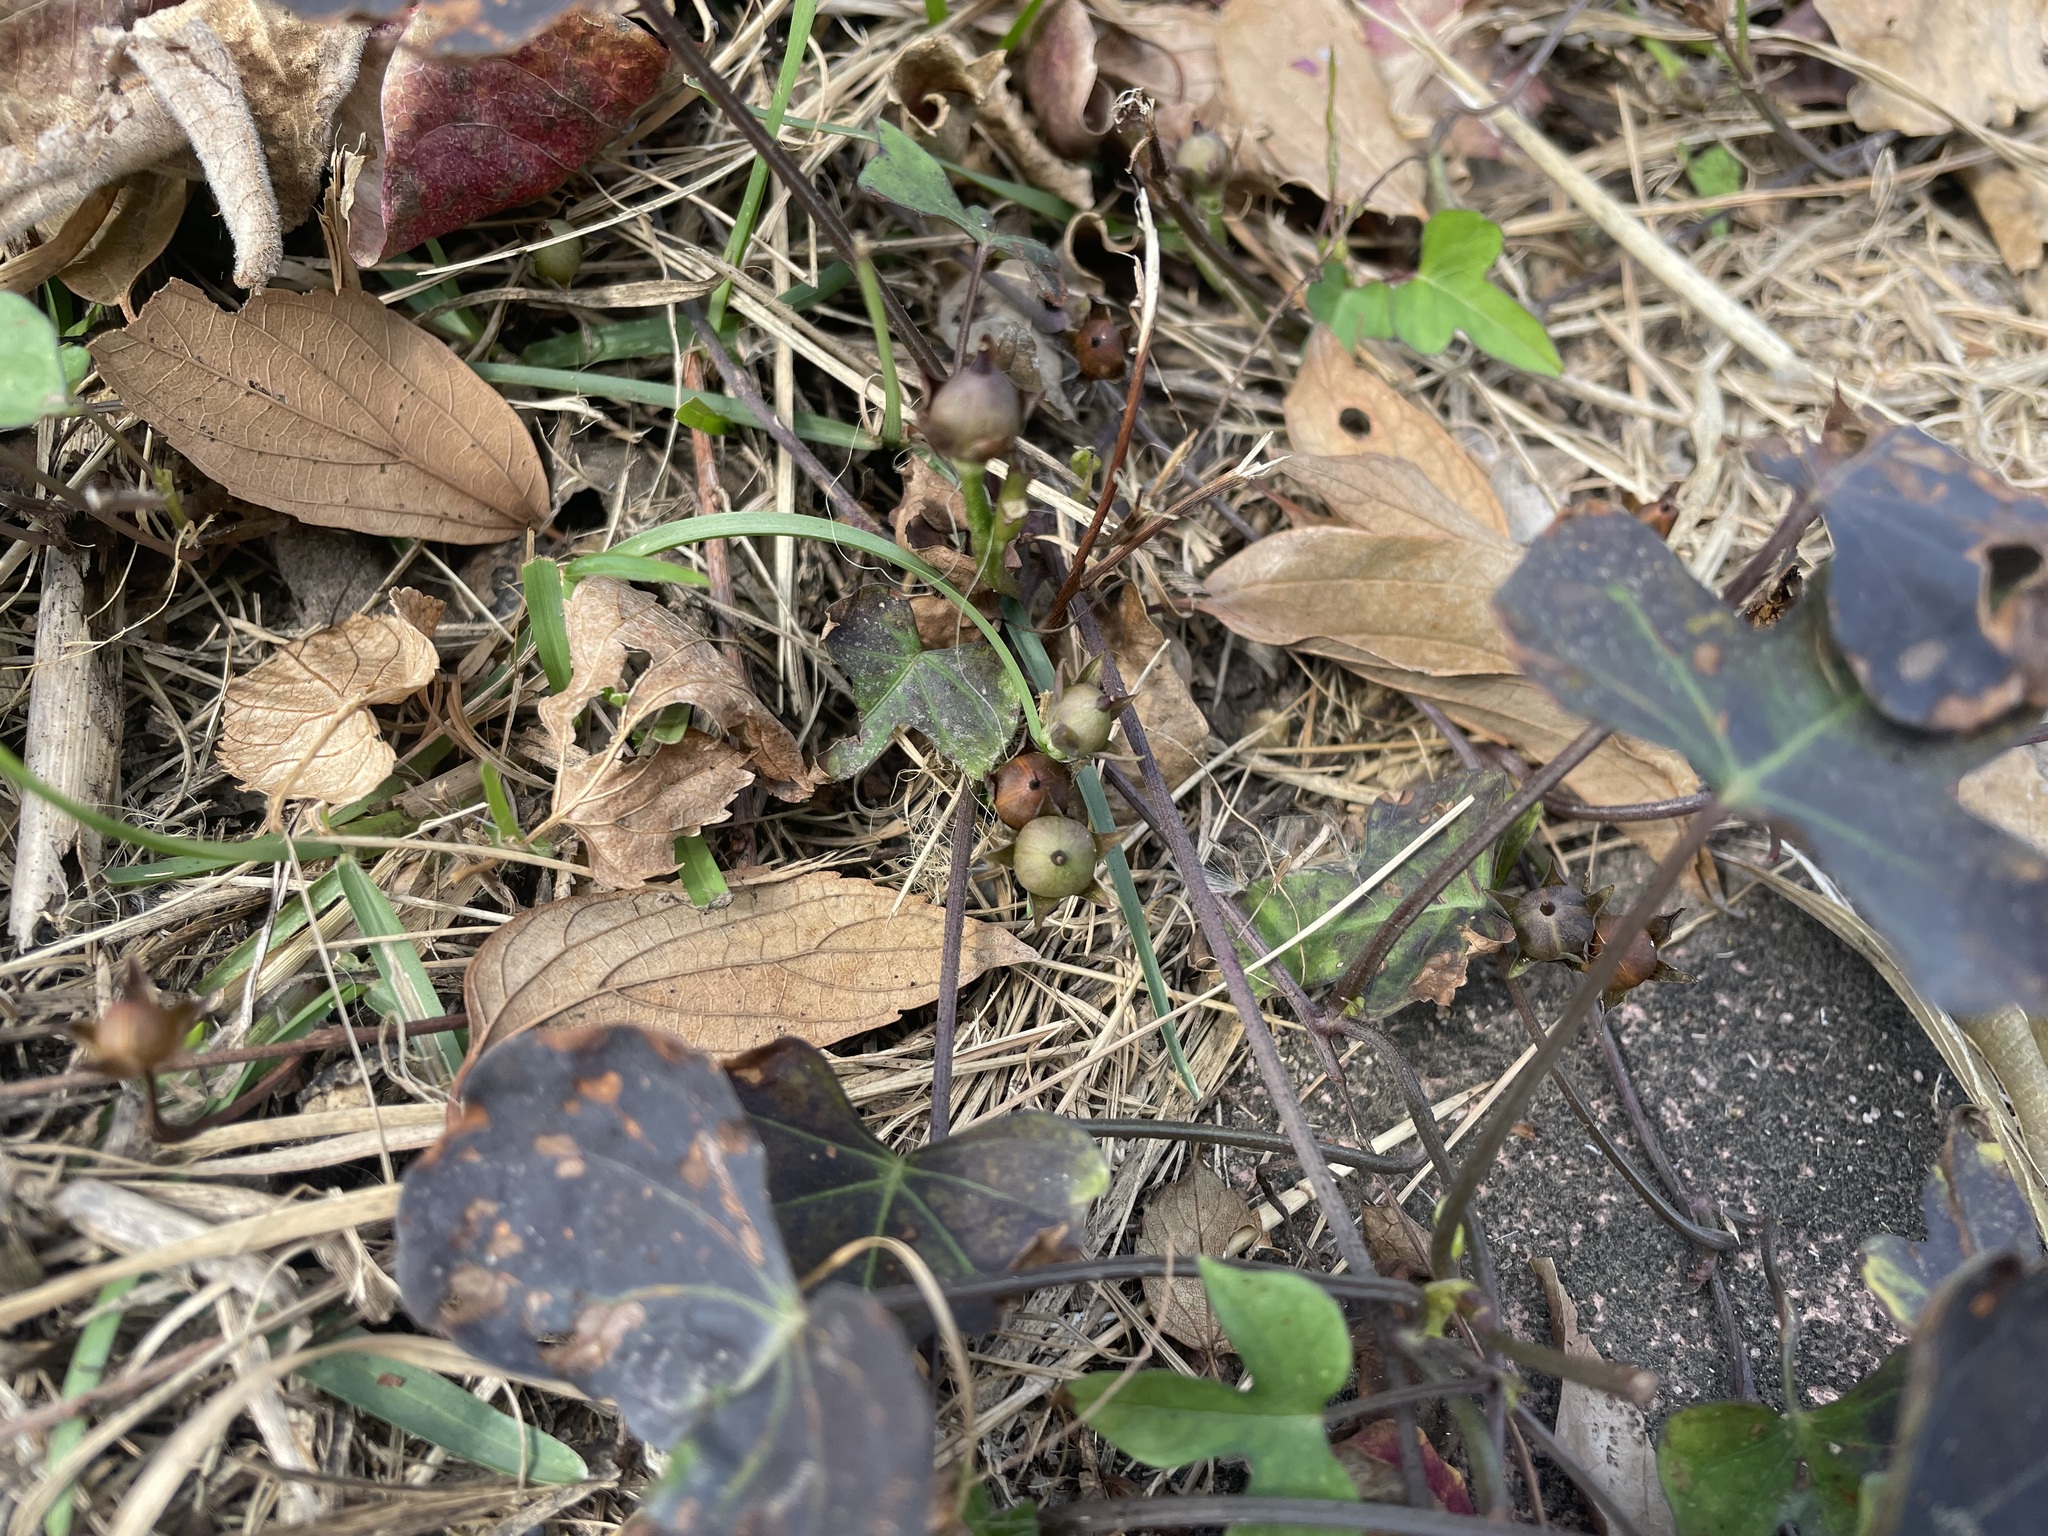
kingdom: Plantae
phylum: Tracheophyta
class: Magnoliopsida
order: Solanales
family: Convolvulaceae
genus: Ipomoea
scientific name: Ipomoea triloba
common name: Little-bell
